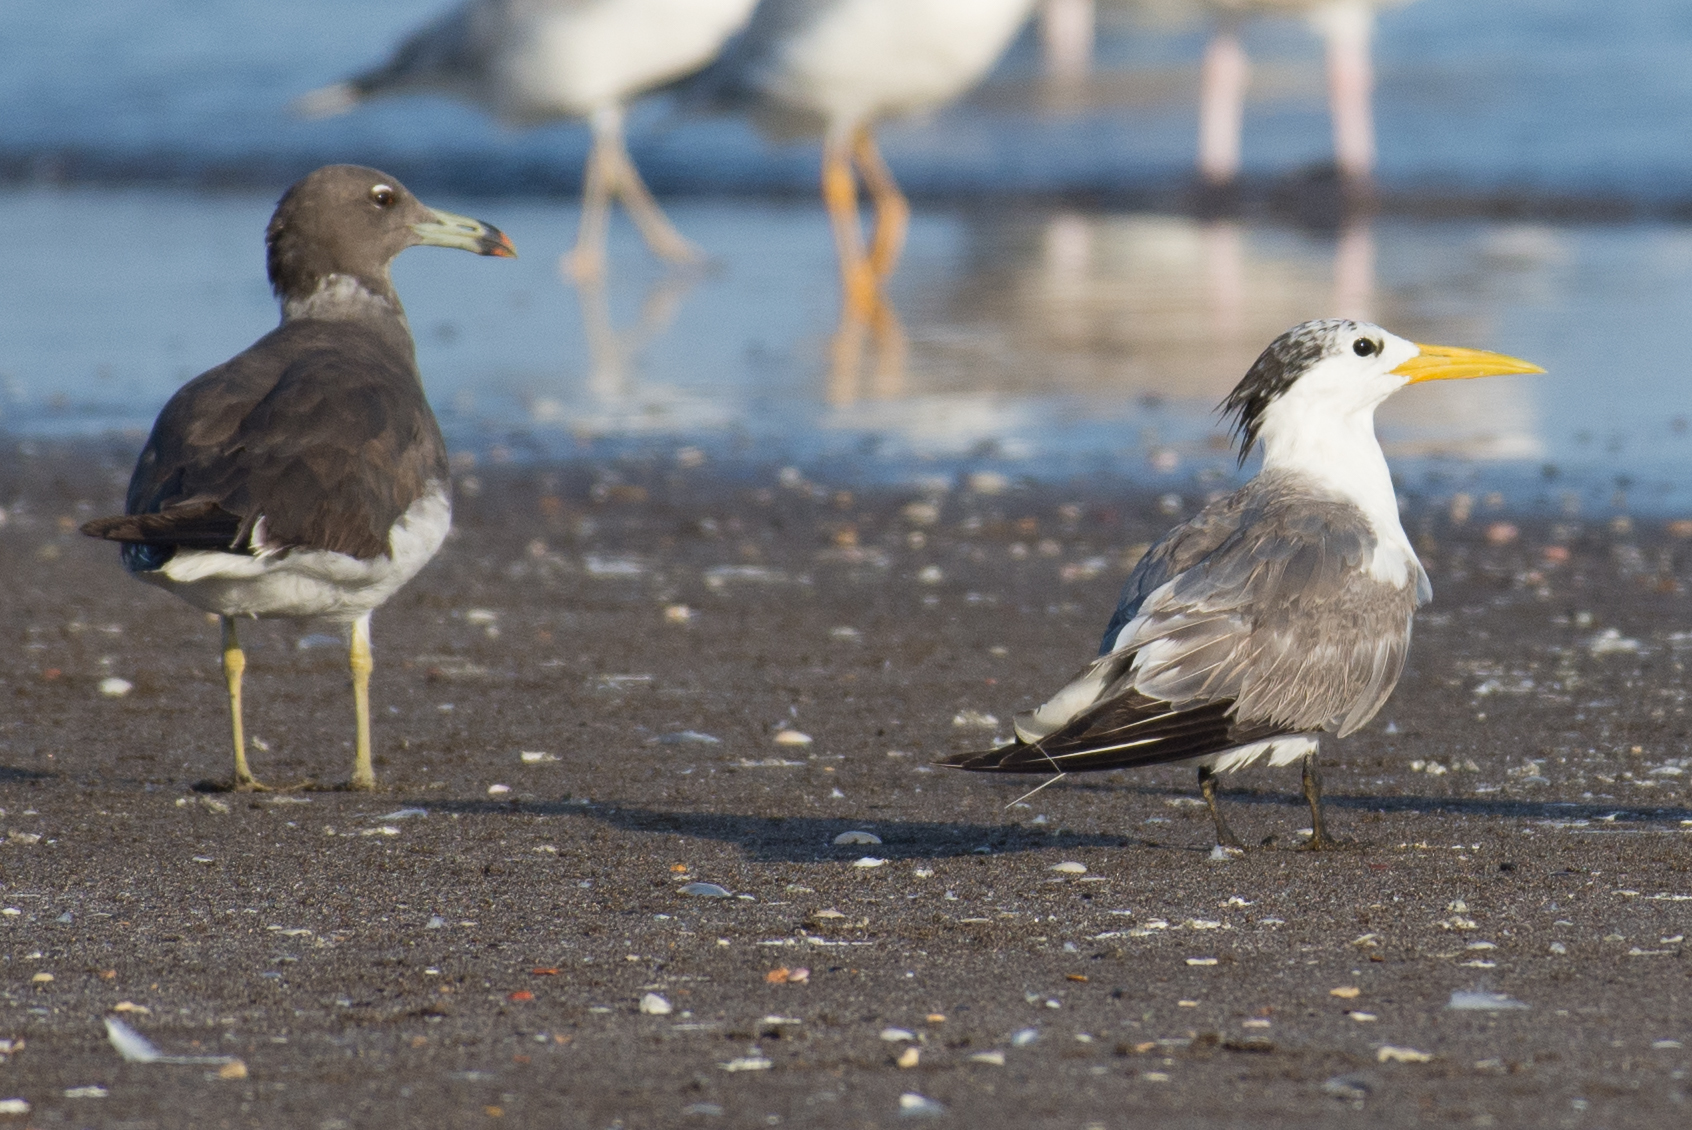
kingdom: Animalia
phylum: Chordata
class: Aves
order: Charadriiformes
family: Laridae
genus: Thalasseus
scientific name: Thalasseus bergii
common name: Greater crested tern
